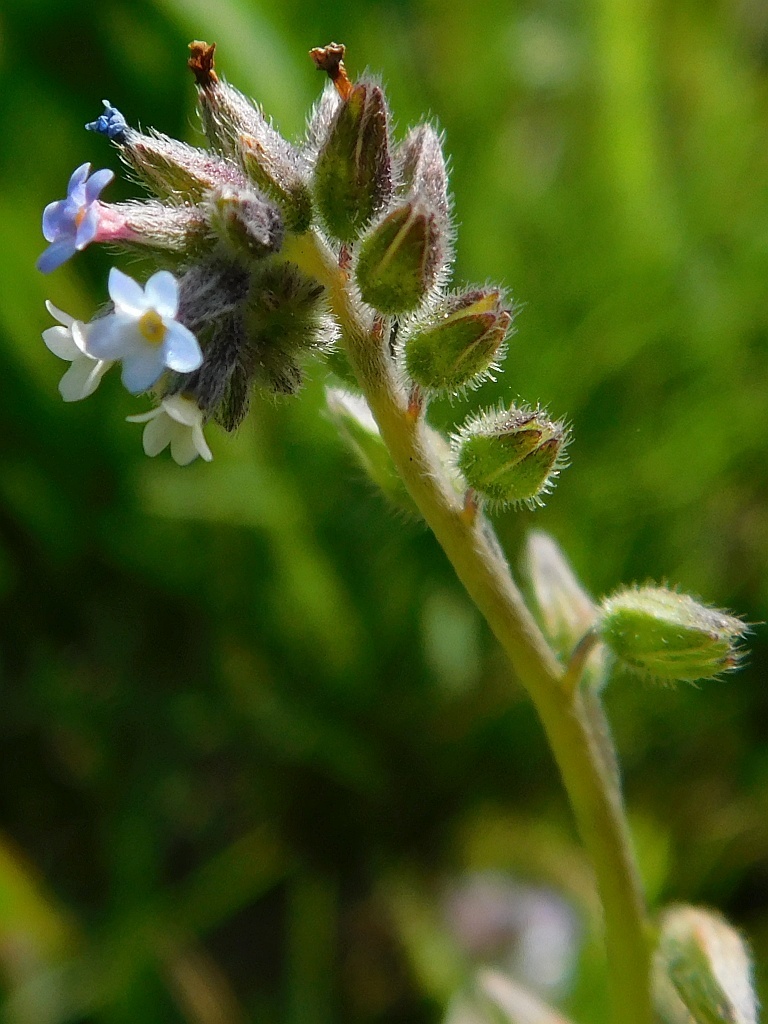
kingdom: Plantae
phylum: Tracheophyta
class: Magnoliopsida
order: Boraginales
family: Boraginaceae
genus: Myosotis
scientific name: Myosotis discolor
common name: Changing forget-me-not
